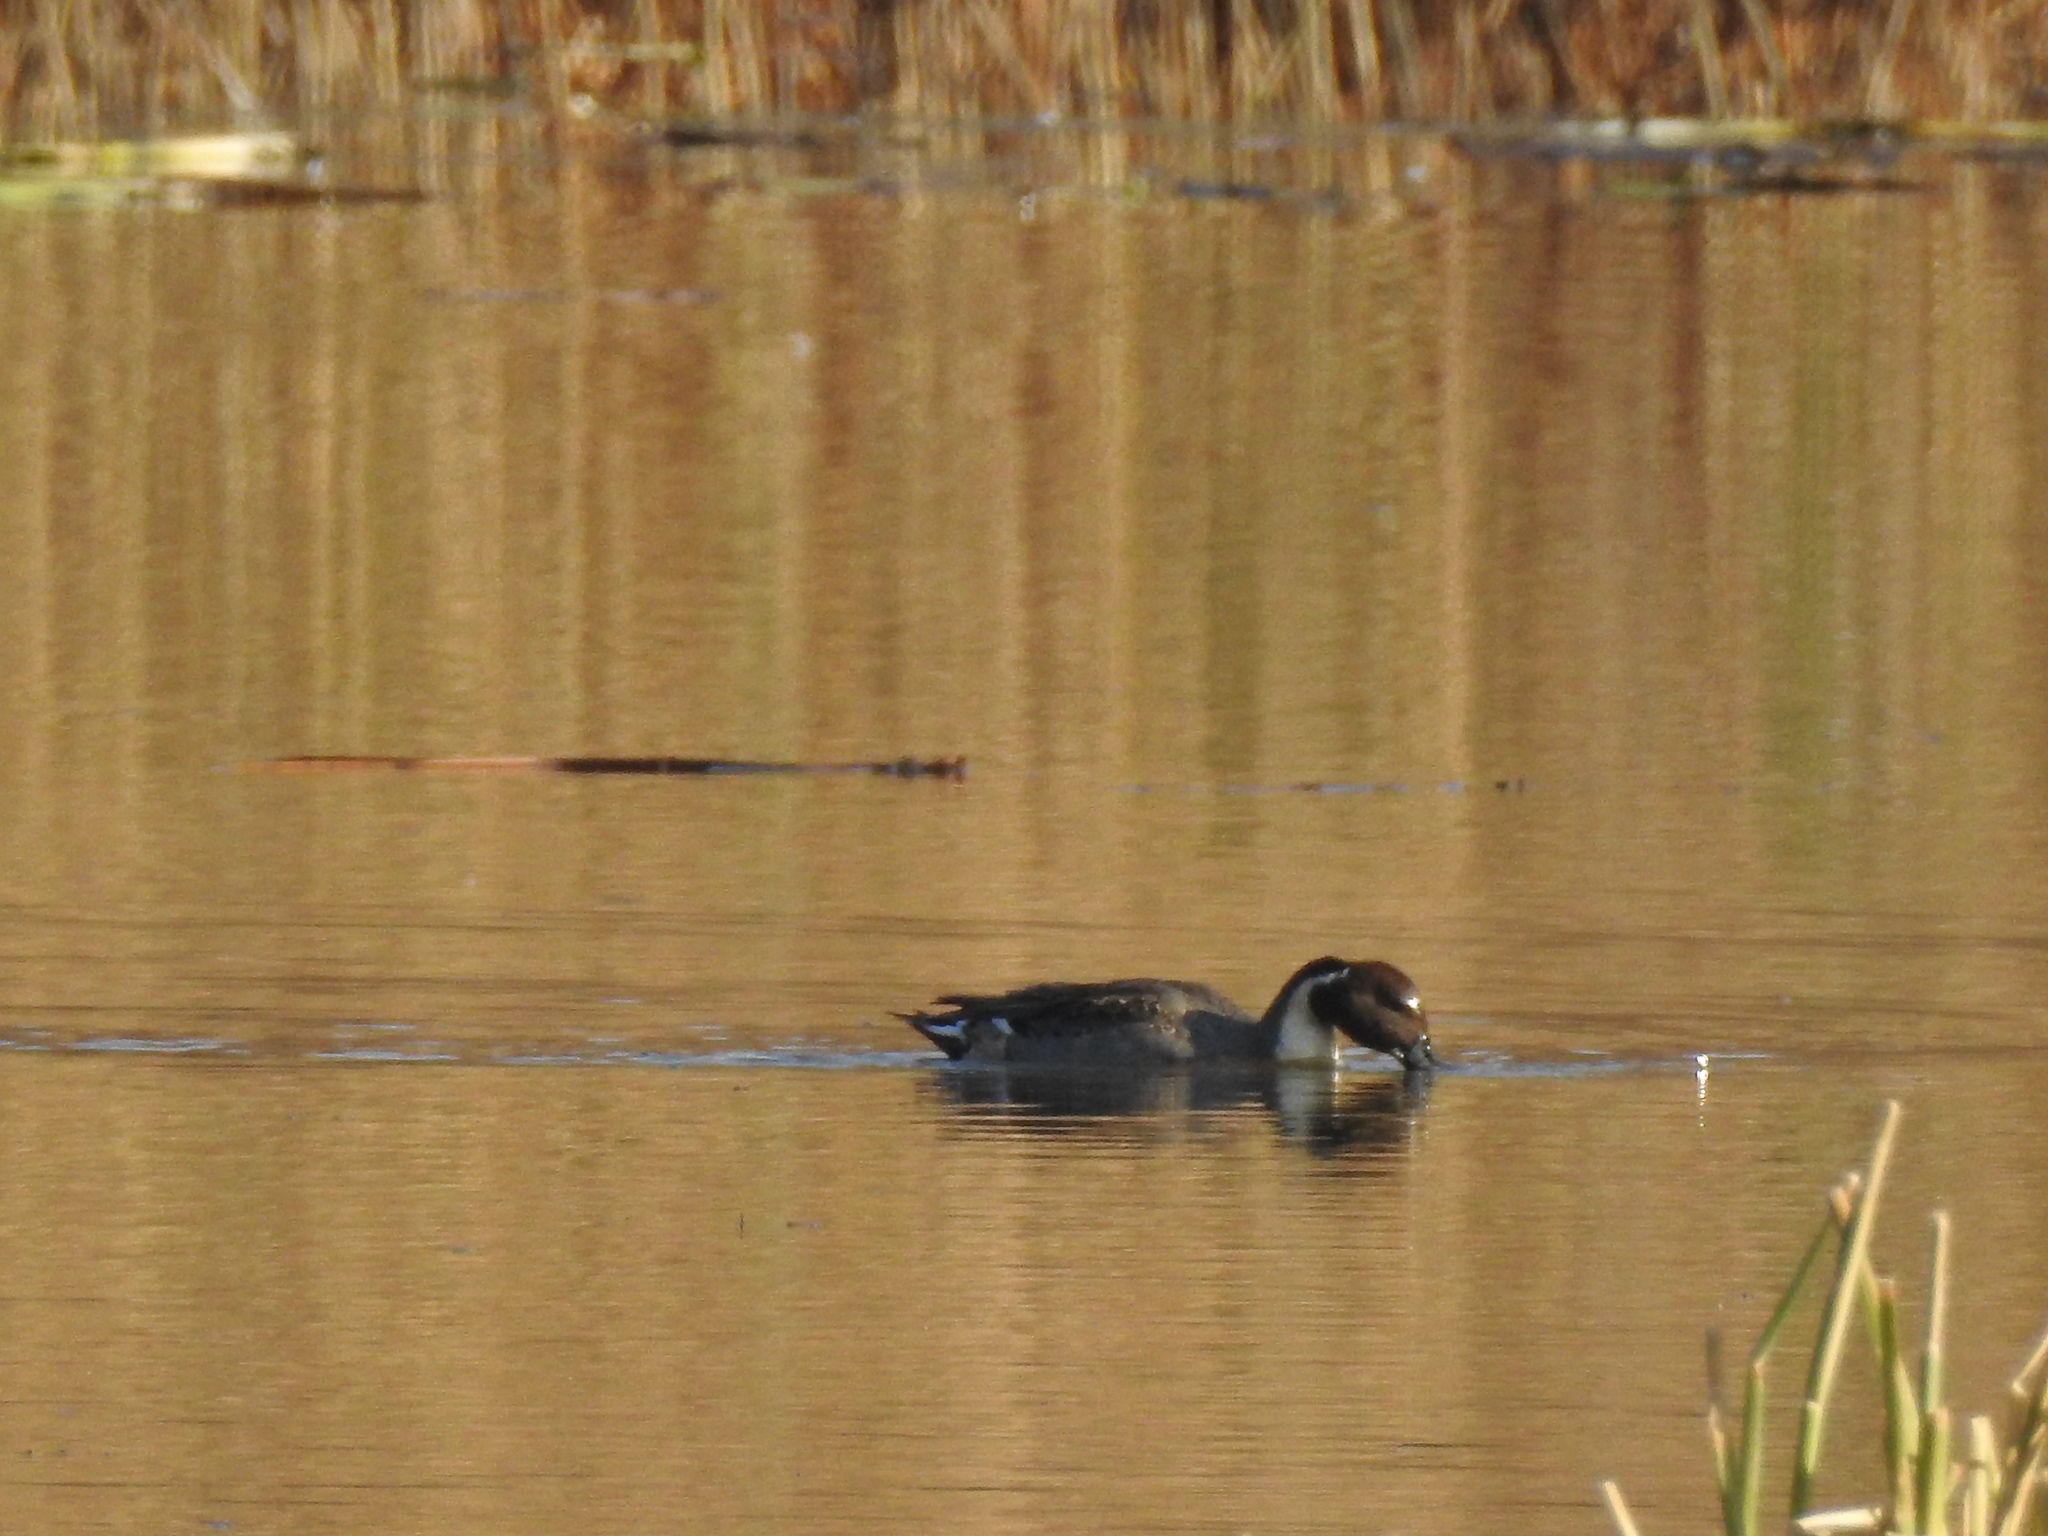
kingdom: Animalia
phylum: Chordata
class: Aves
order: Anseriformes
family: Anatidae
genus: Anas
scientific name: Anas acuta
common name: Northern pintail
